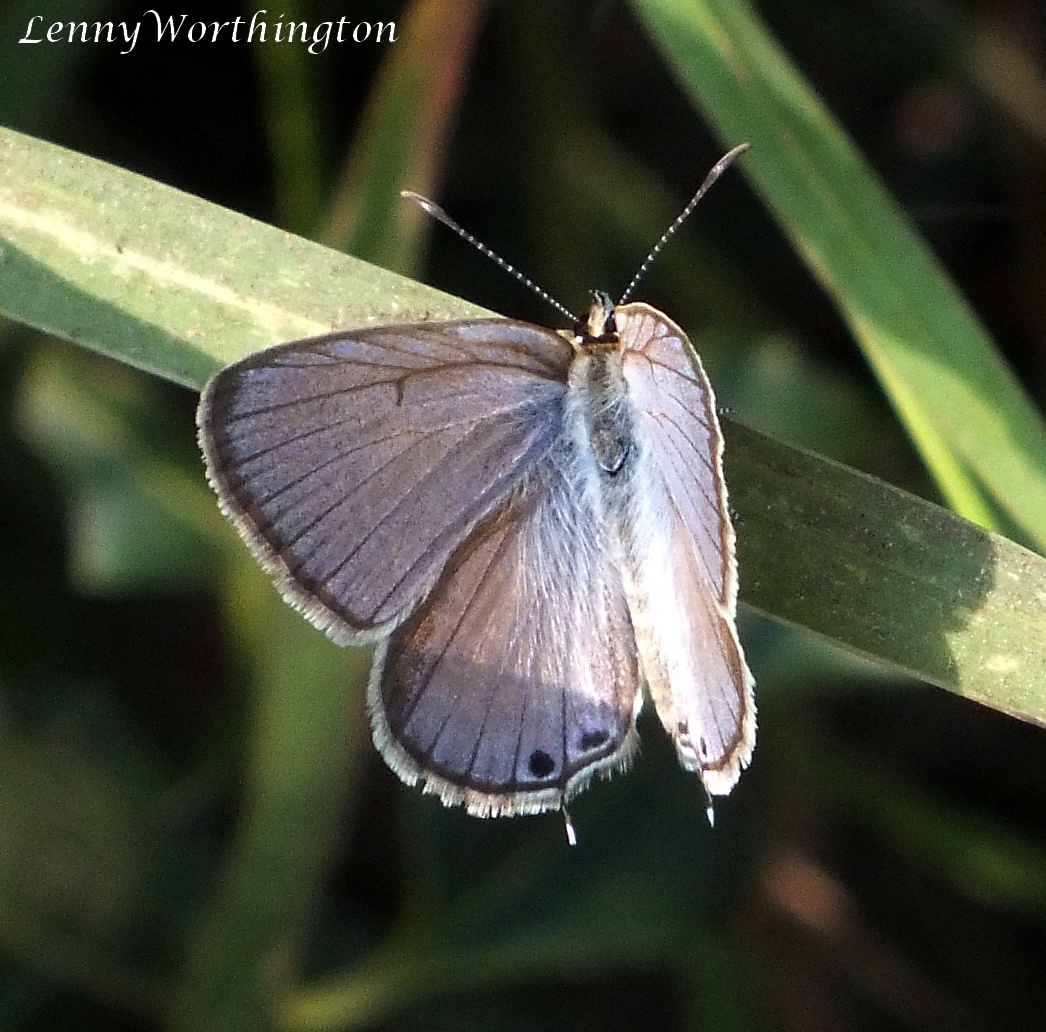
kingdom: Animalia
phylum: Arthropoda
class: Insecta
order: Lepidoptera
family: Lycaenidae
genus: Euchrysops
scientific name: Euchrysops cnejus
